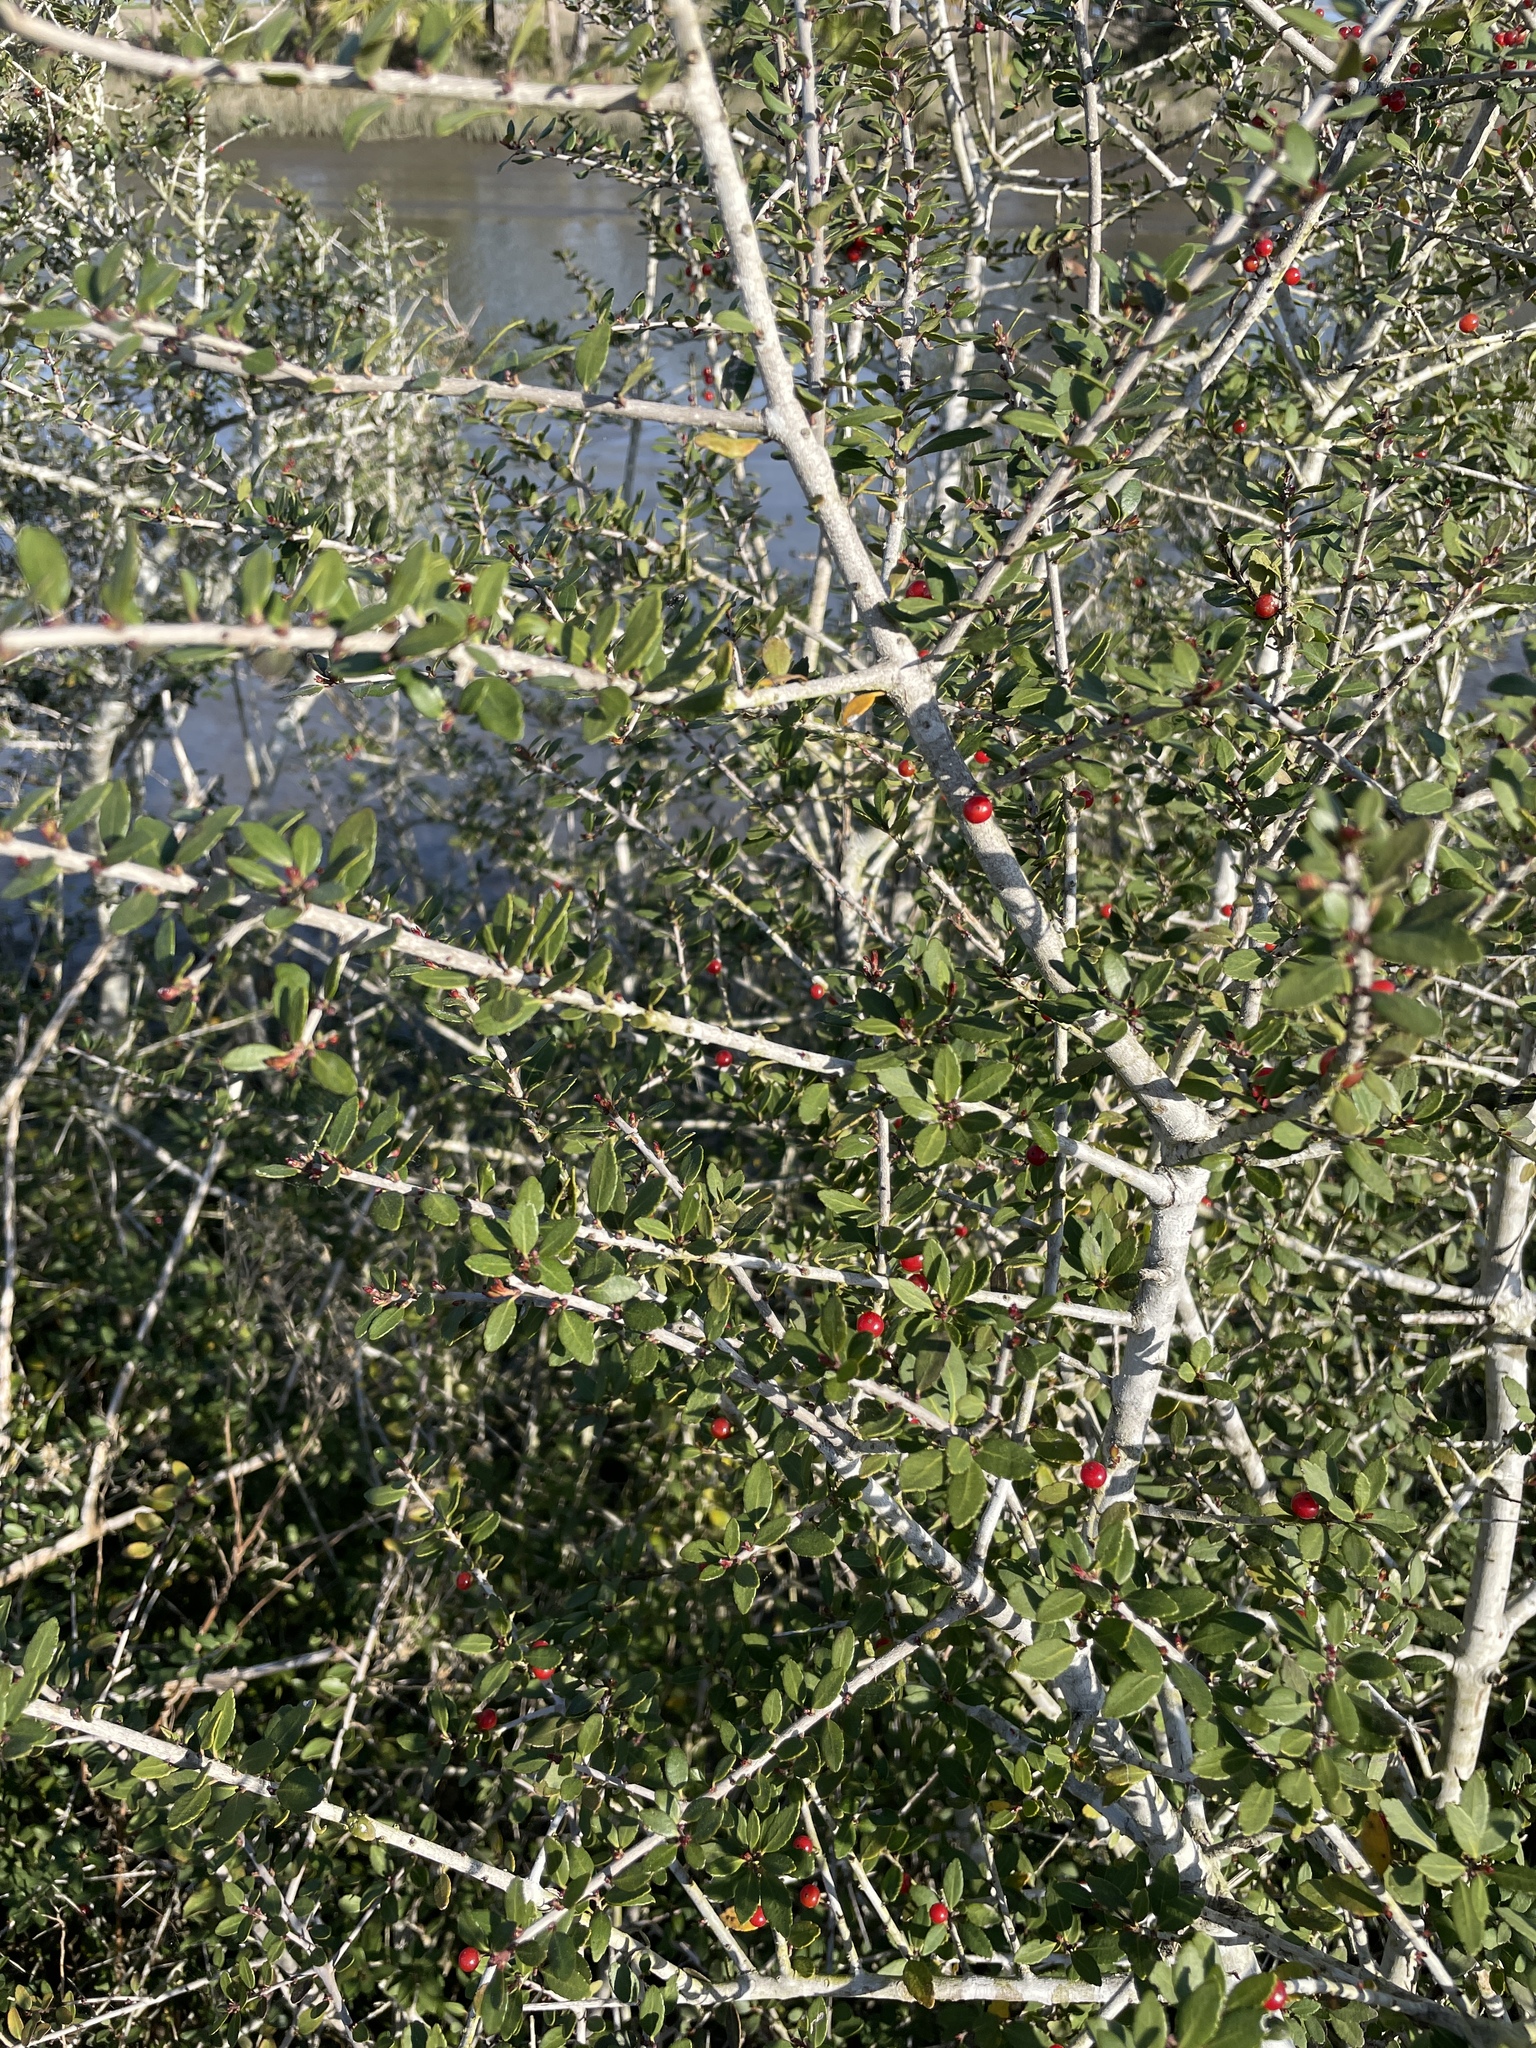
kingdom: Plantae
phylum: Tracheophyta
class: Magnoliopsida
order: Aquifoliales
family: Aquifoliaceae
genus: Ilex
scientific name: Ilex vomitoria
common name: Yaupon holly
